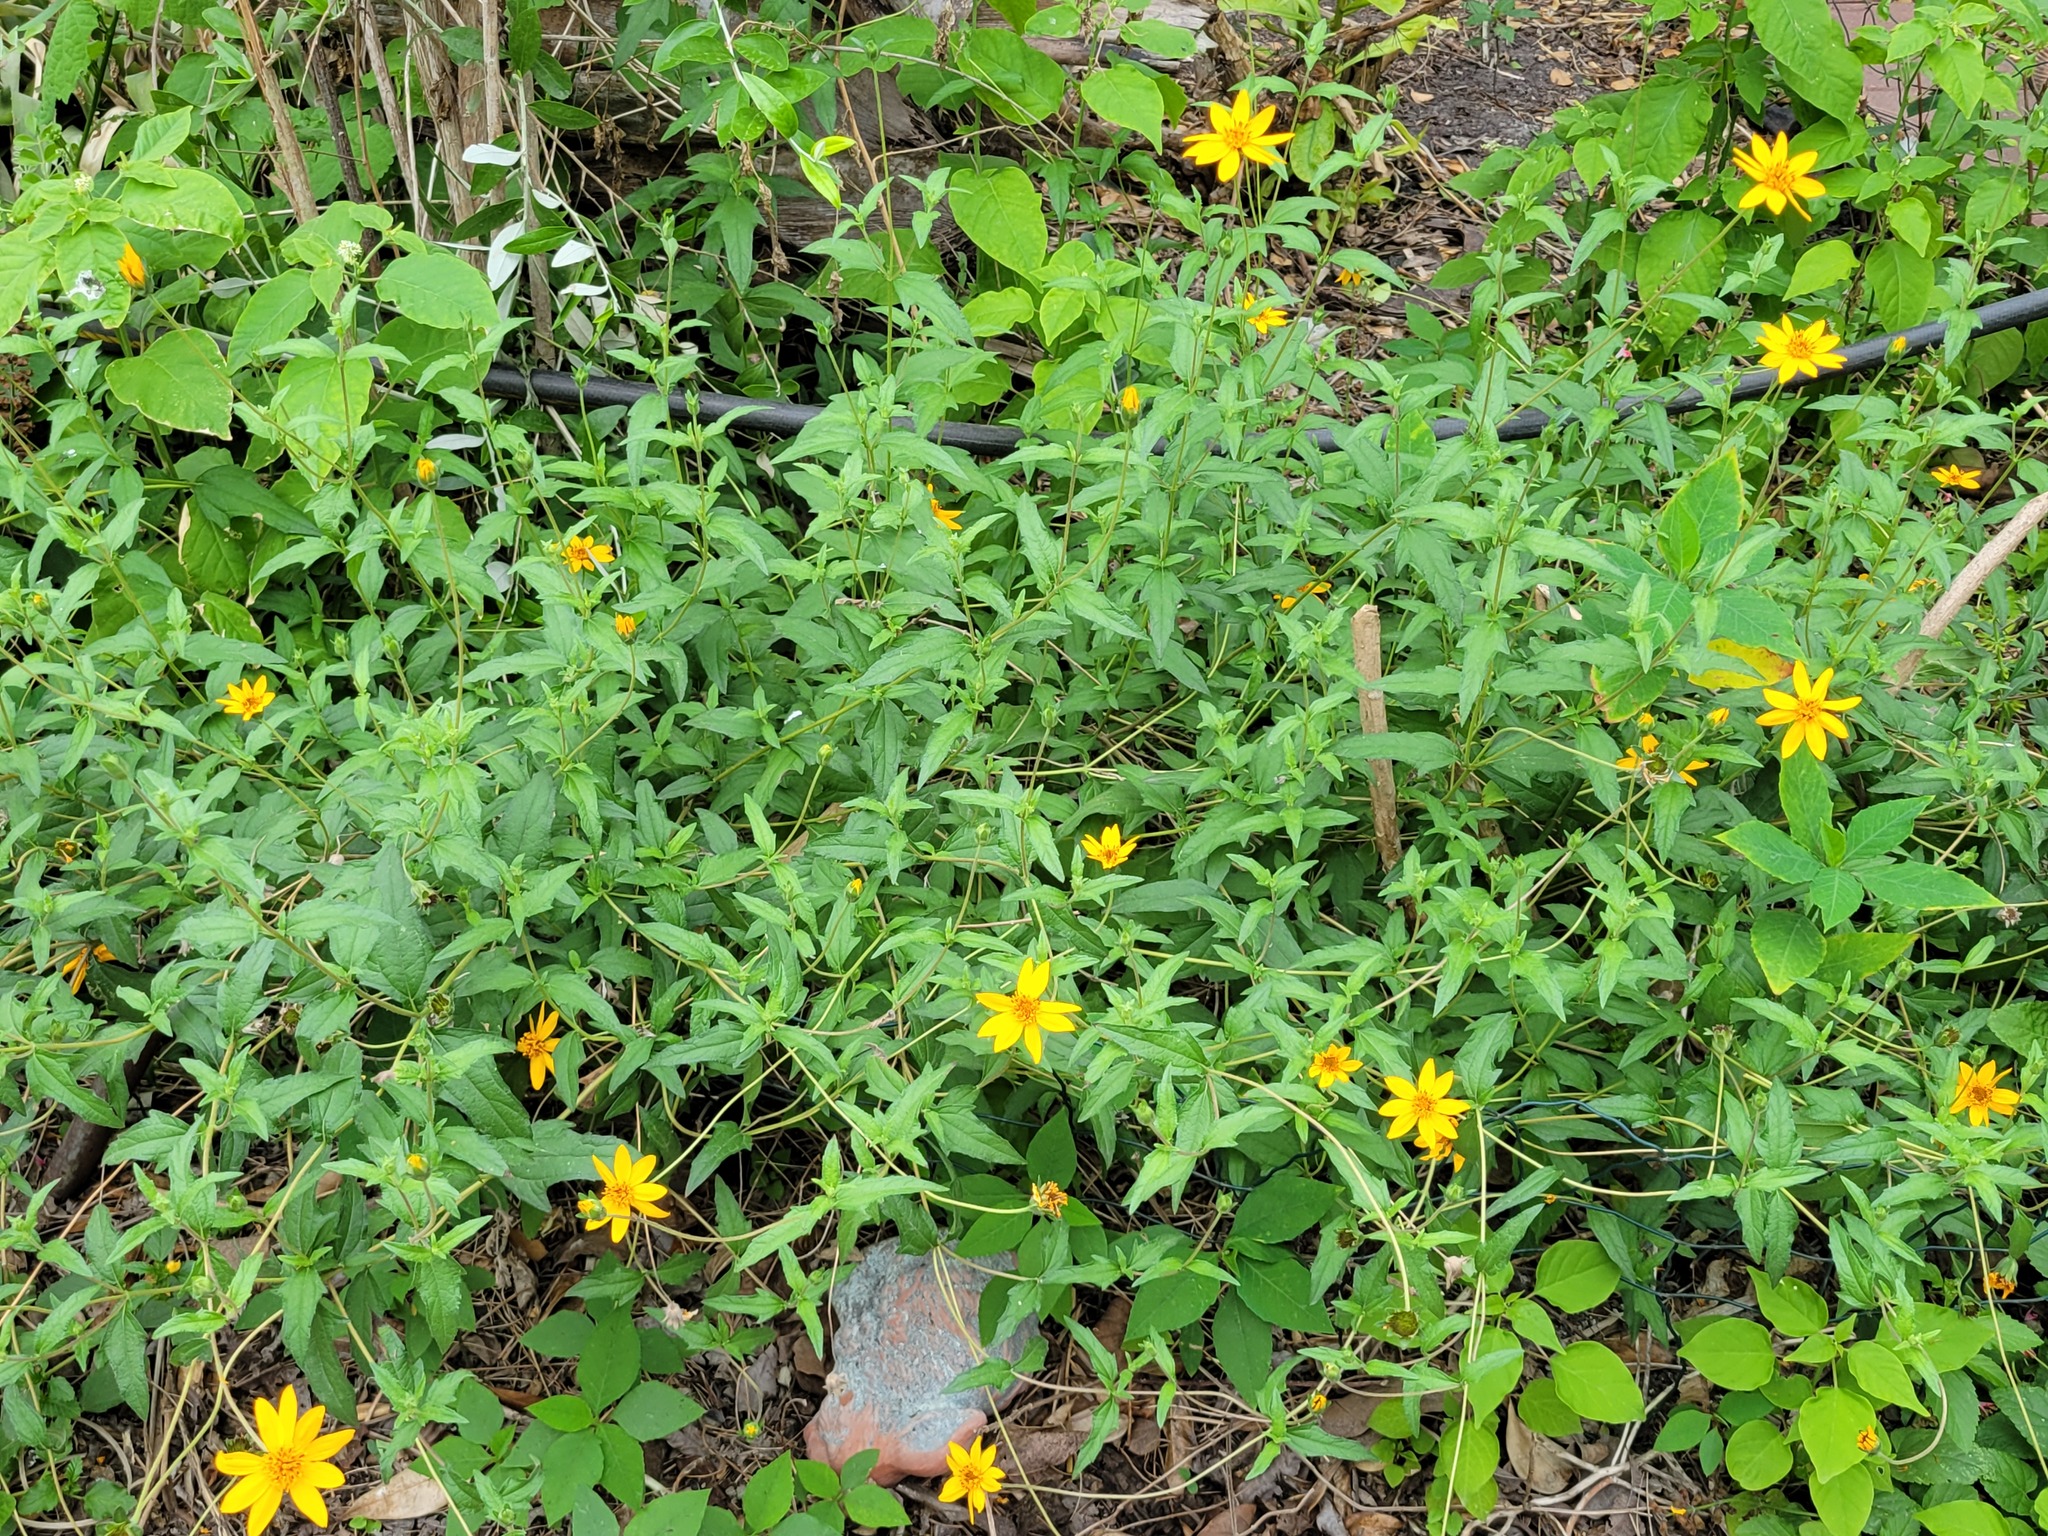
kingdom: Plantae
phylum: Tracheophyta
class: Magnoliopsida
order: Asterales
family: Asteraceae
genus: Wedelia
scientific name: Wedelia acapulcensis
